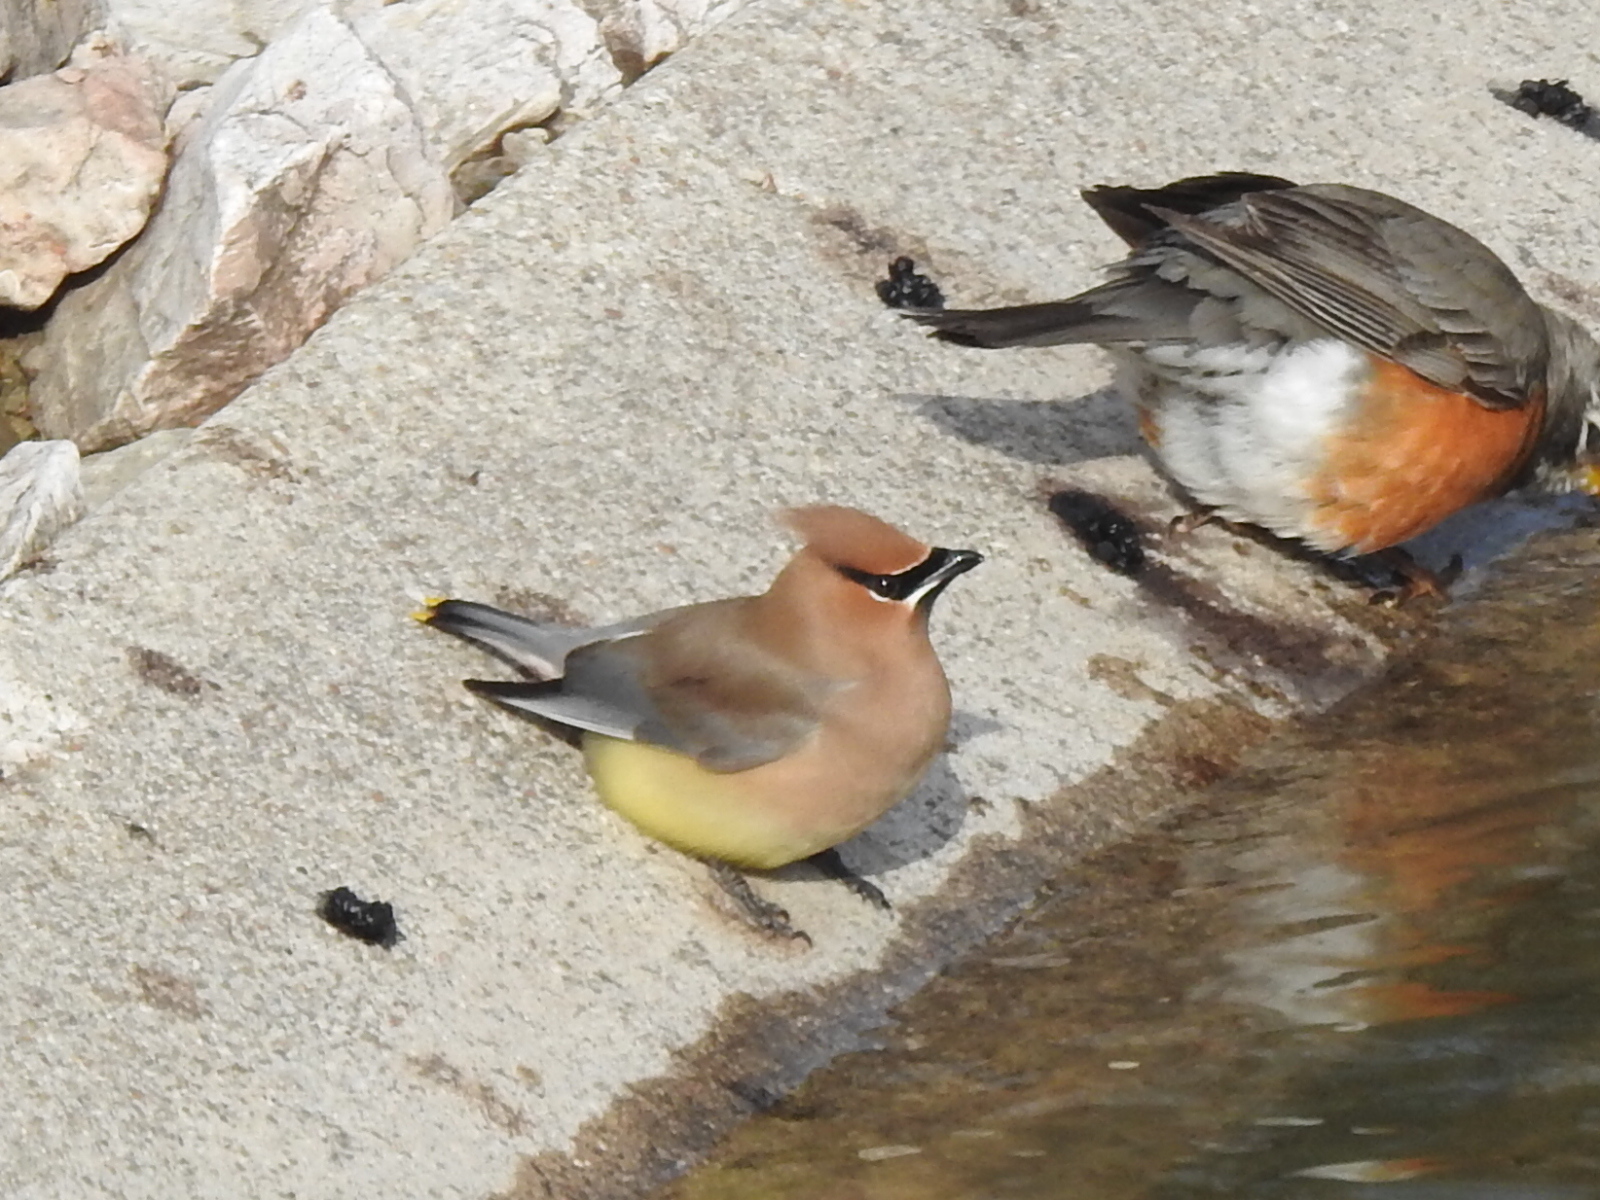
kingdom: Animalia
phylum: Chordata
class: Aves
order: Passeriformes
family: Bombycillidae
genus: Bombycilla
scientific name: Bombycilla cedrorum
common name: Cedar waxwing
